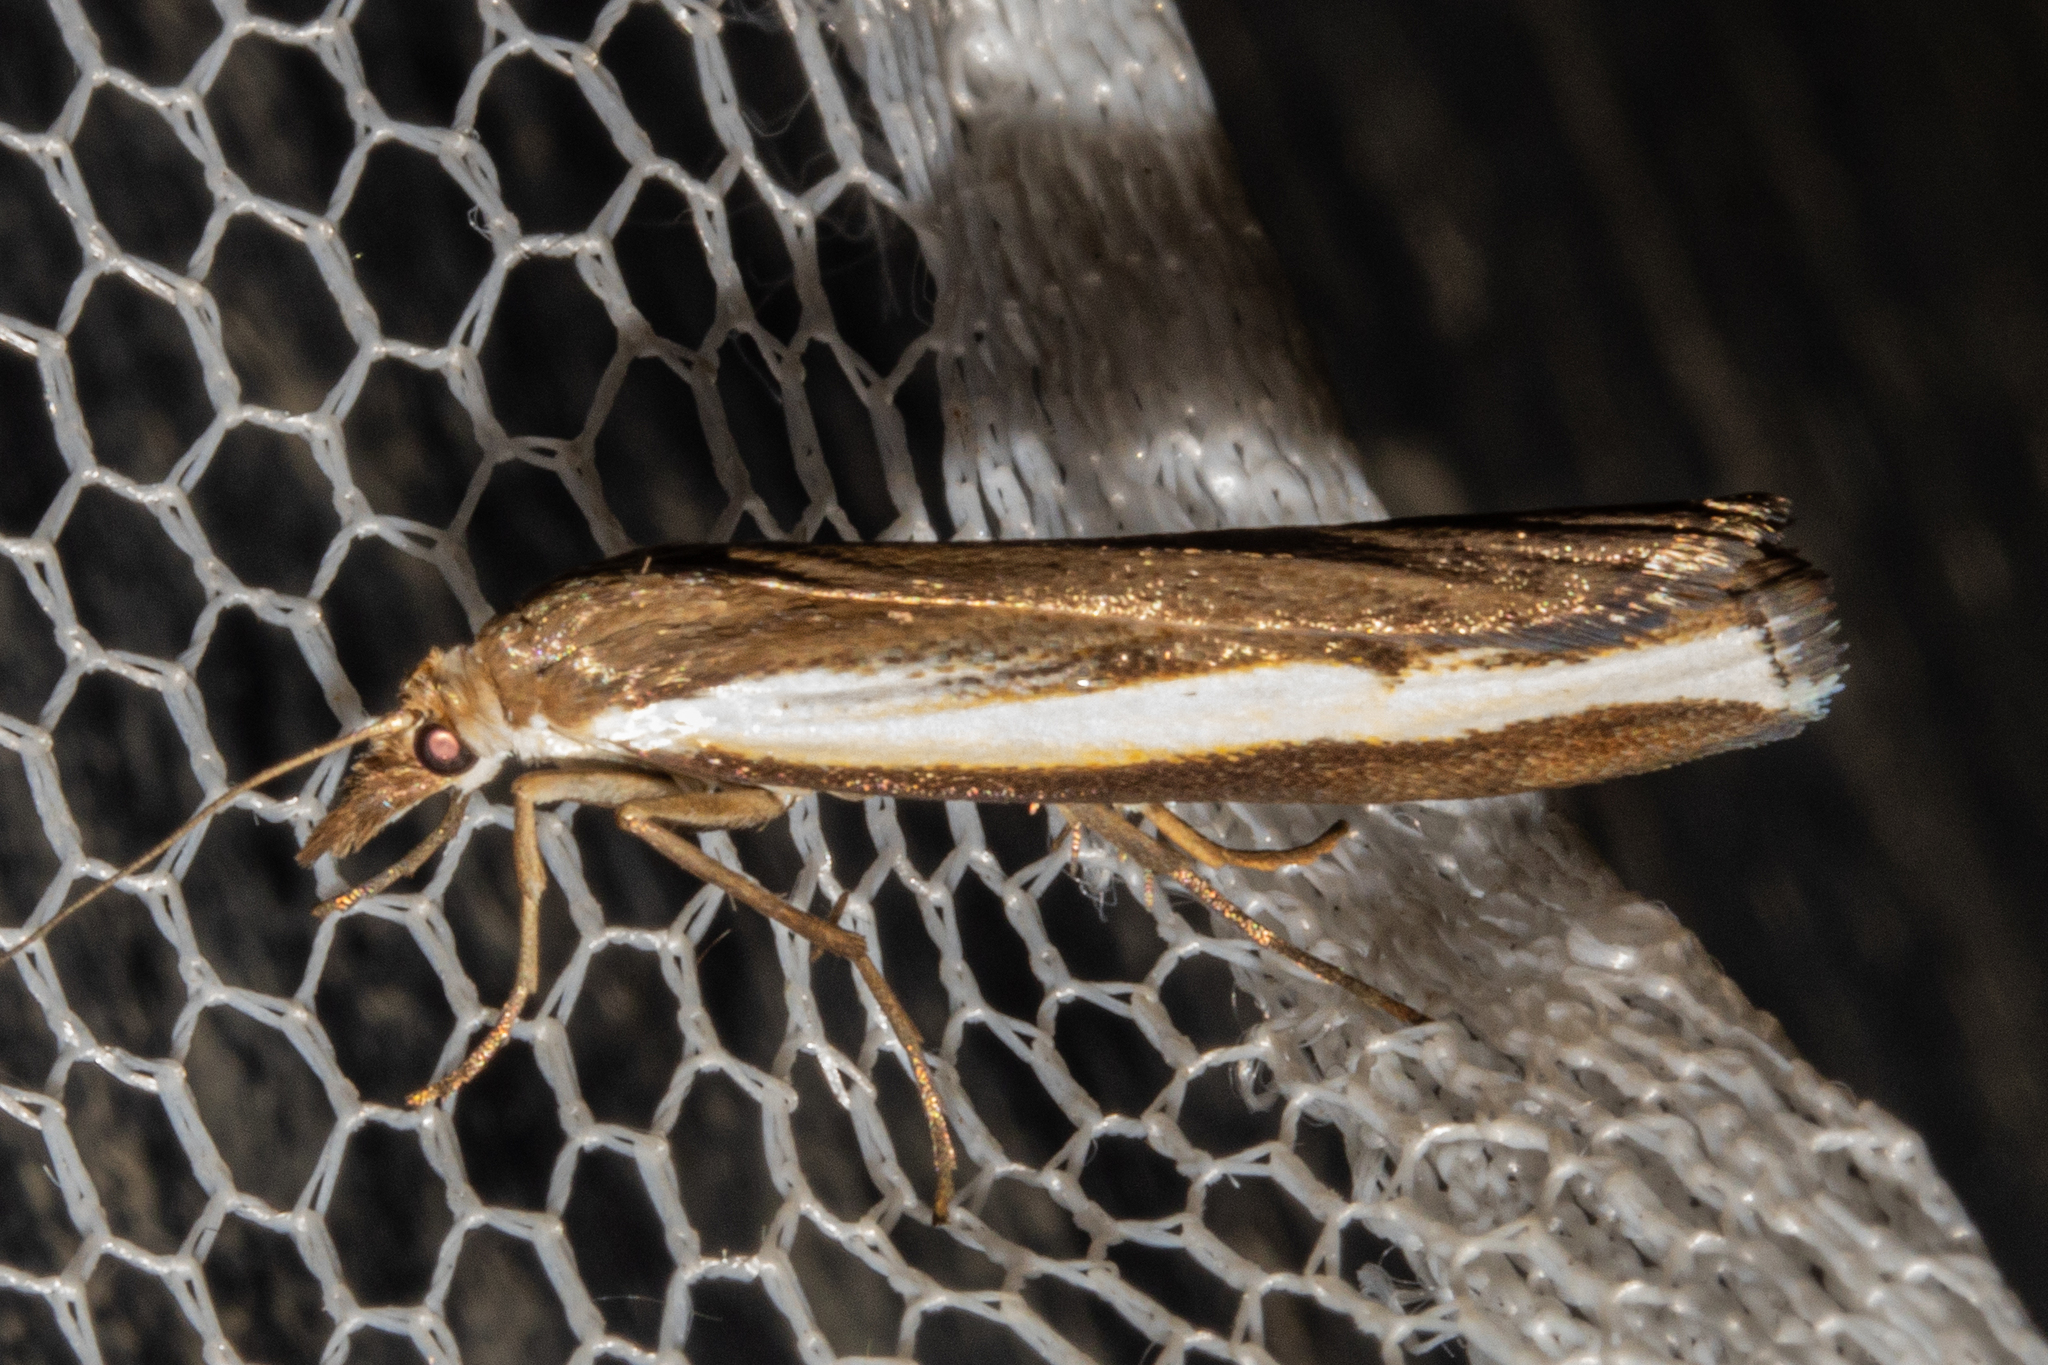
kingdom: Animalia
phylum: Arthropoda
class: Insecta
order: Lepidoptera
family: Crambidae
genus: Orocrambus
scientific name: Orocrambus flexuosellus
